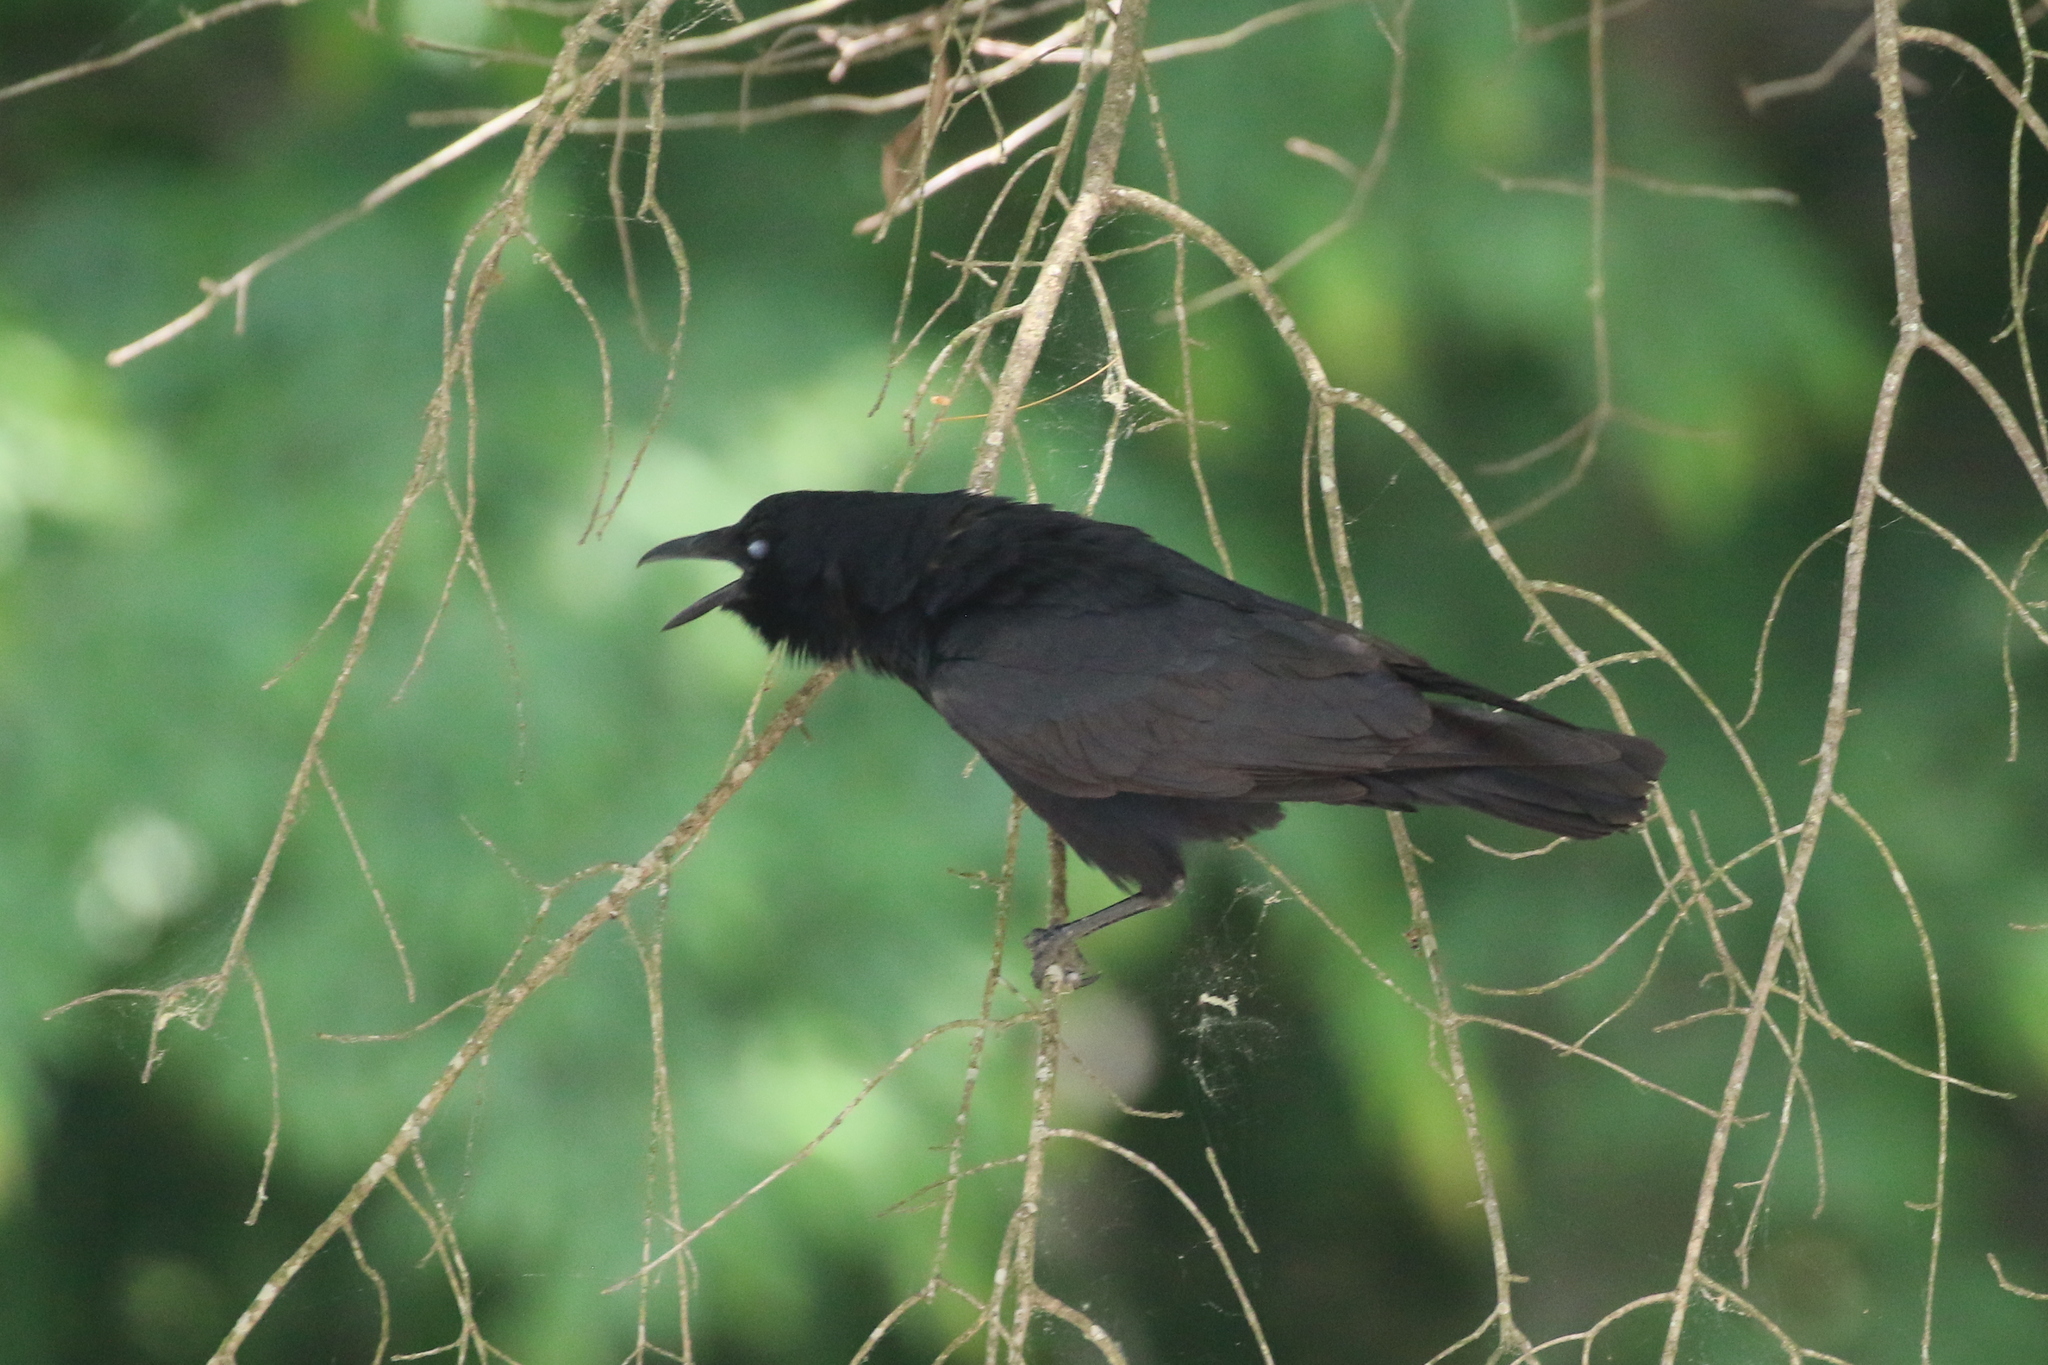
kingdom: Animalia
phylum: Chordata
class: Aves
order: Passeriformes
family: Corvidae
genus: Corvus
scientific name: Corvus ossifragus
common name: Fish crow
